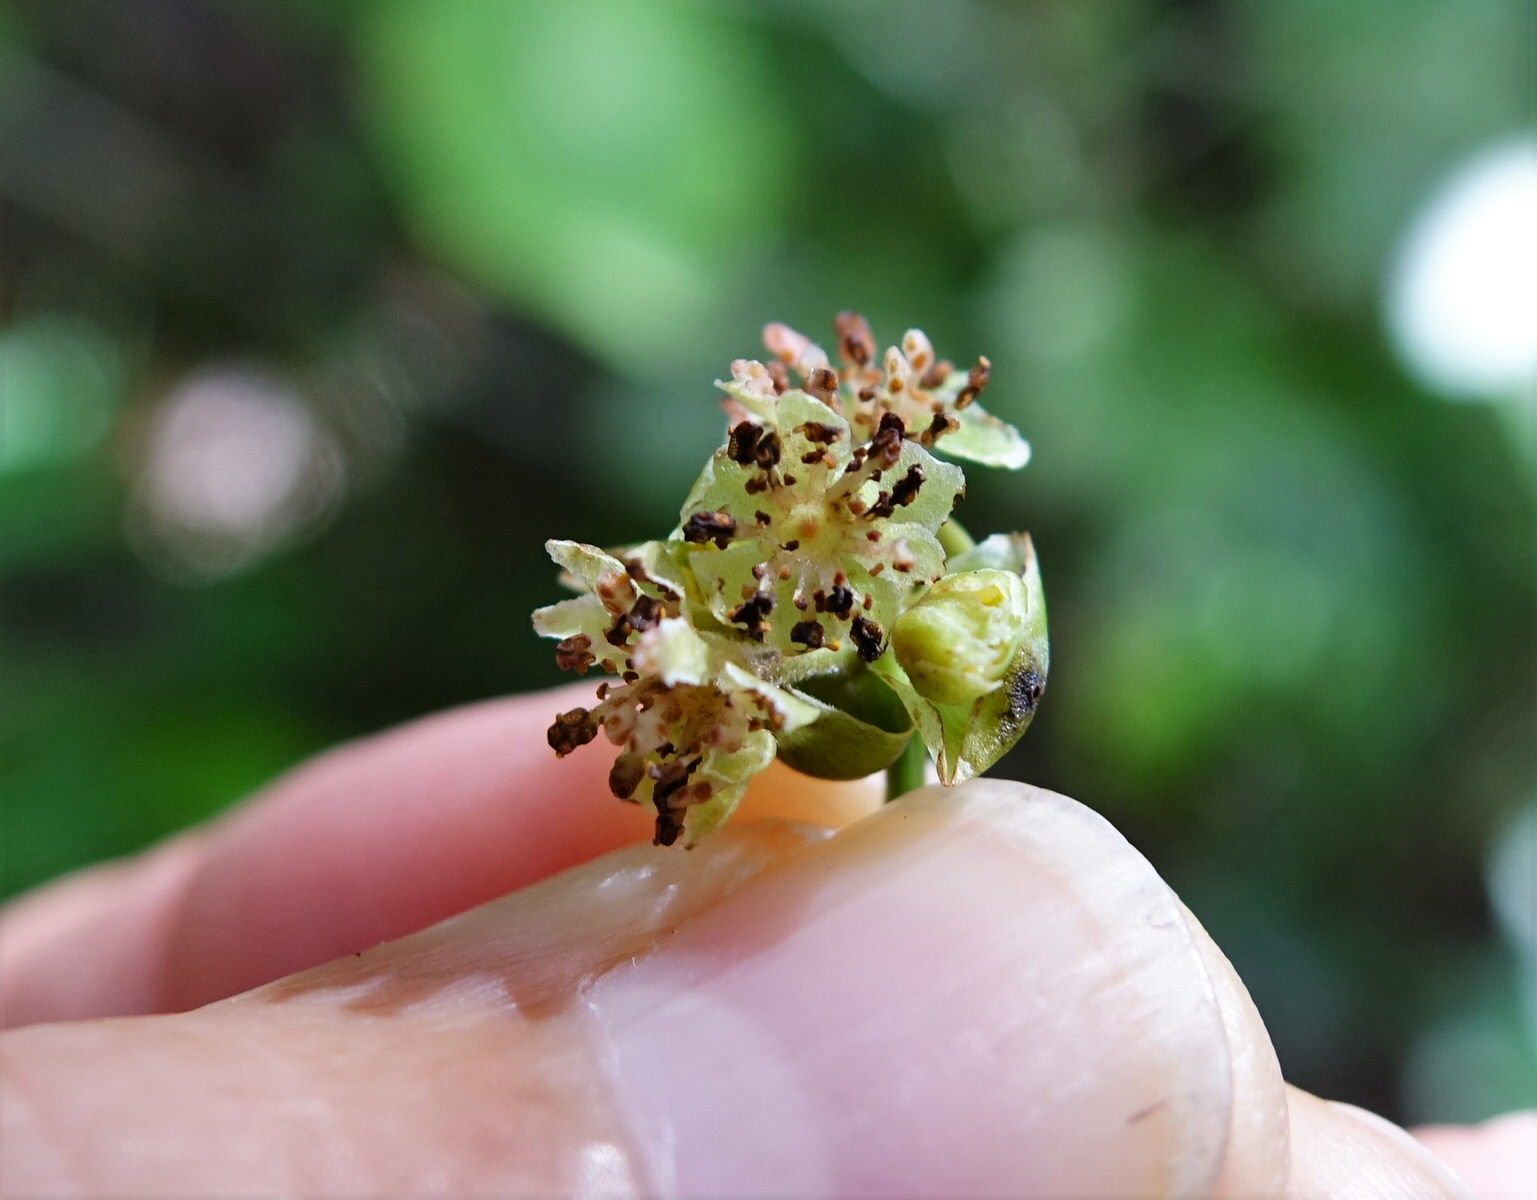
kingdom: Plantae
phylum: Tracheophyta
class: Magnoliopsida
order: Laurales
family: Lauraceae
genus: Litsea
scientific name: Litsea calicaris
